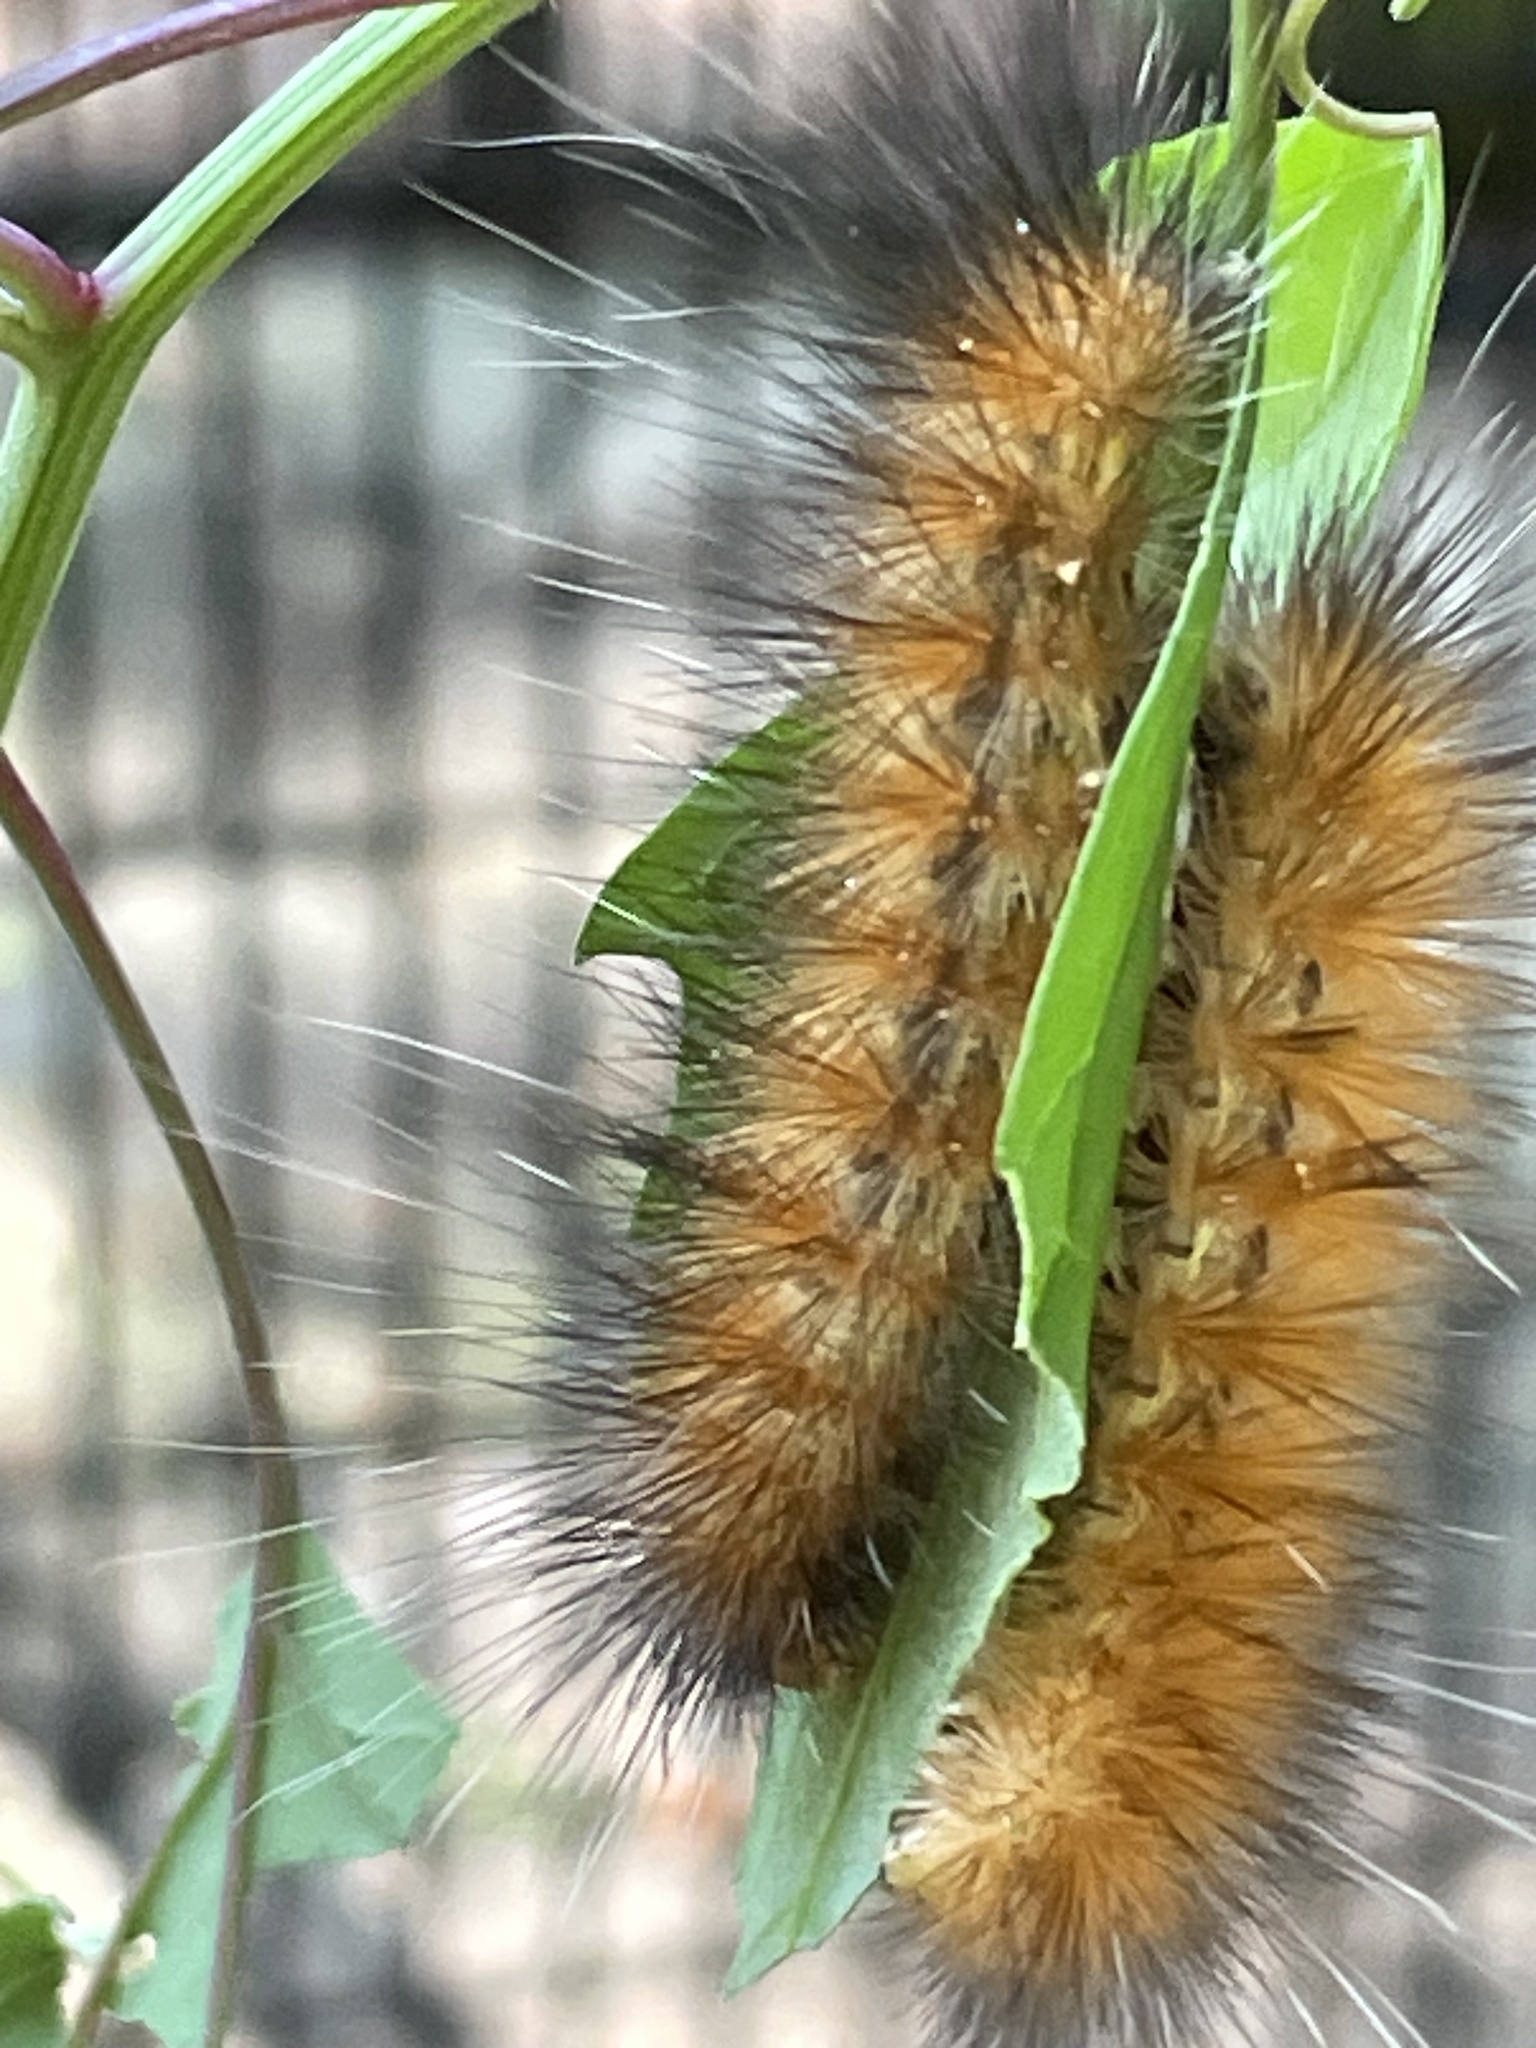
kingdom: Animalia
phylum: Arthropoda
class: Insecta
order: Lepidoptera
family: Erebidae
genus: Spilosoma
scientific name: Spilosoma virginica
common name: Virginia tiger moth
